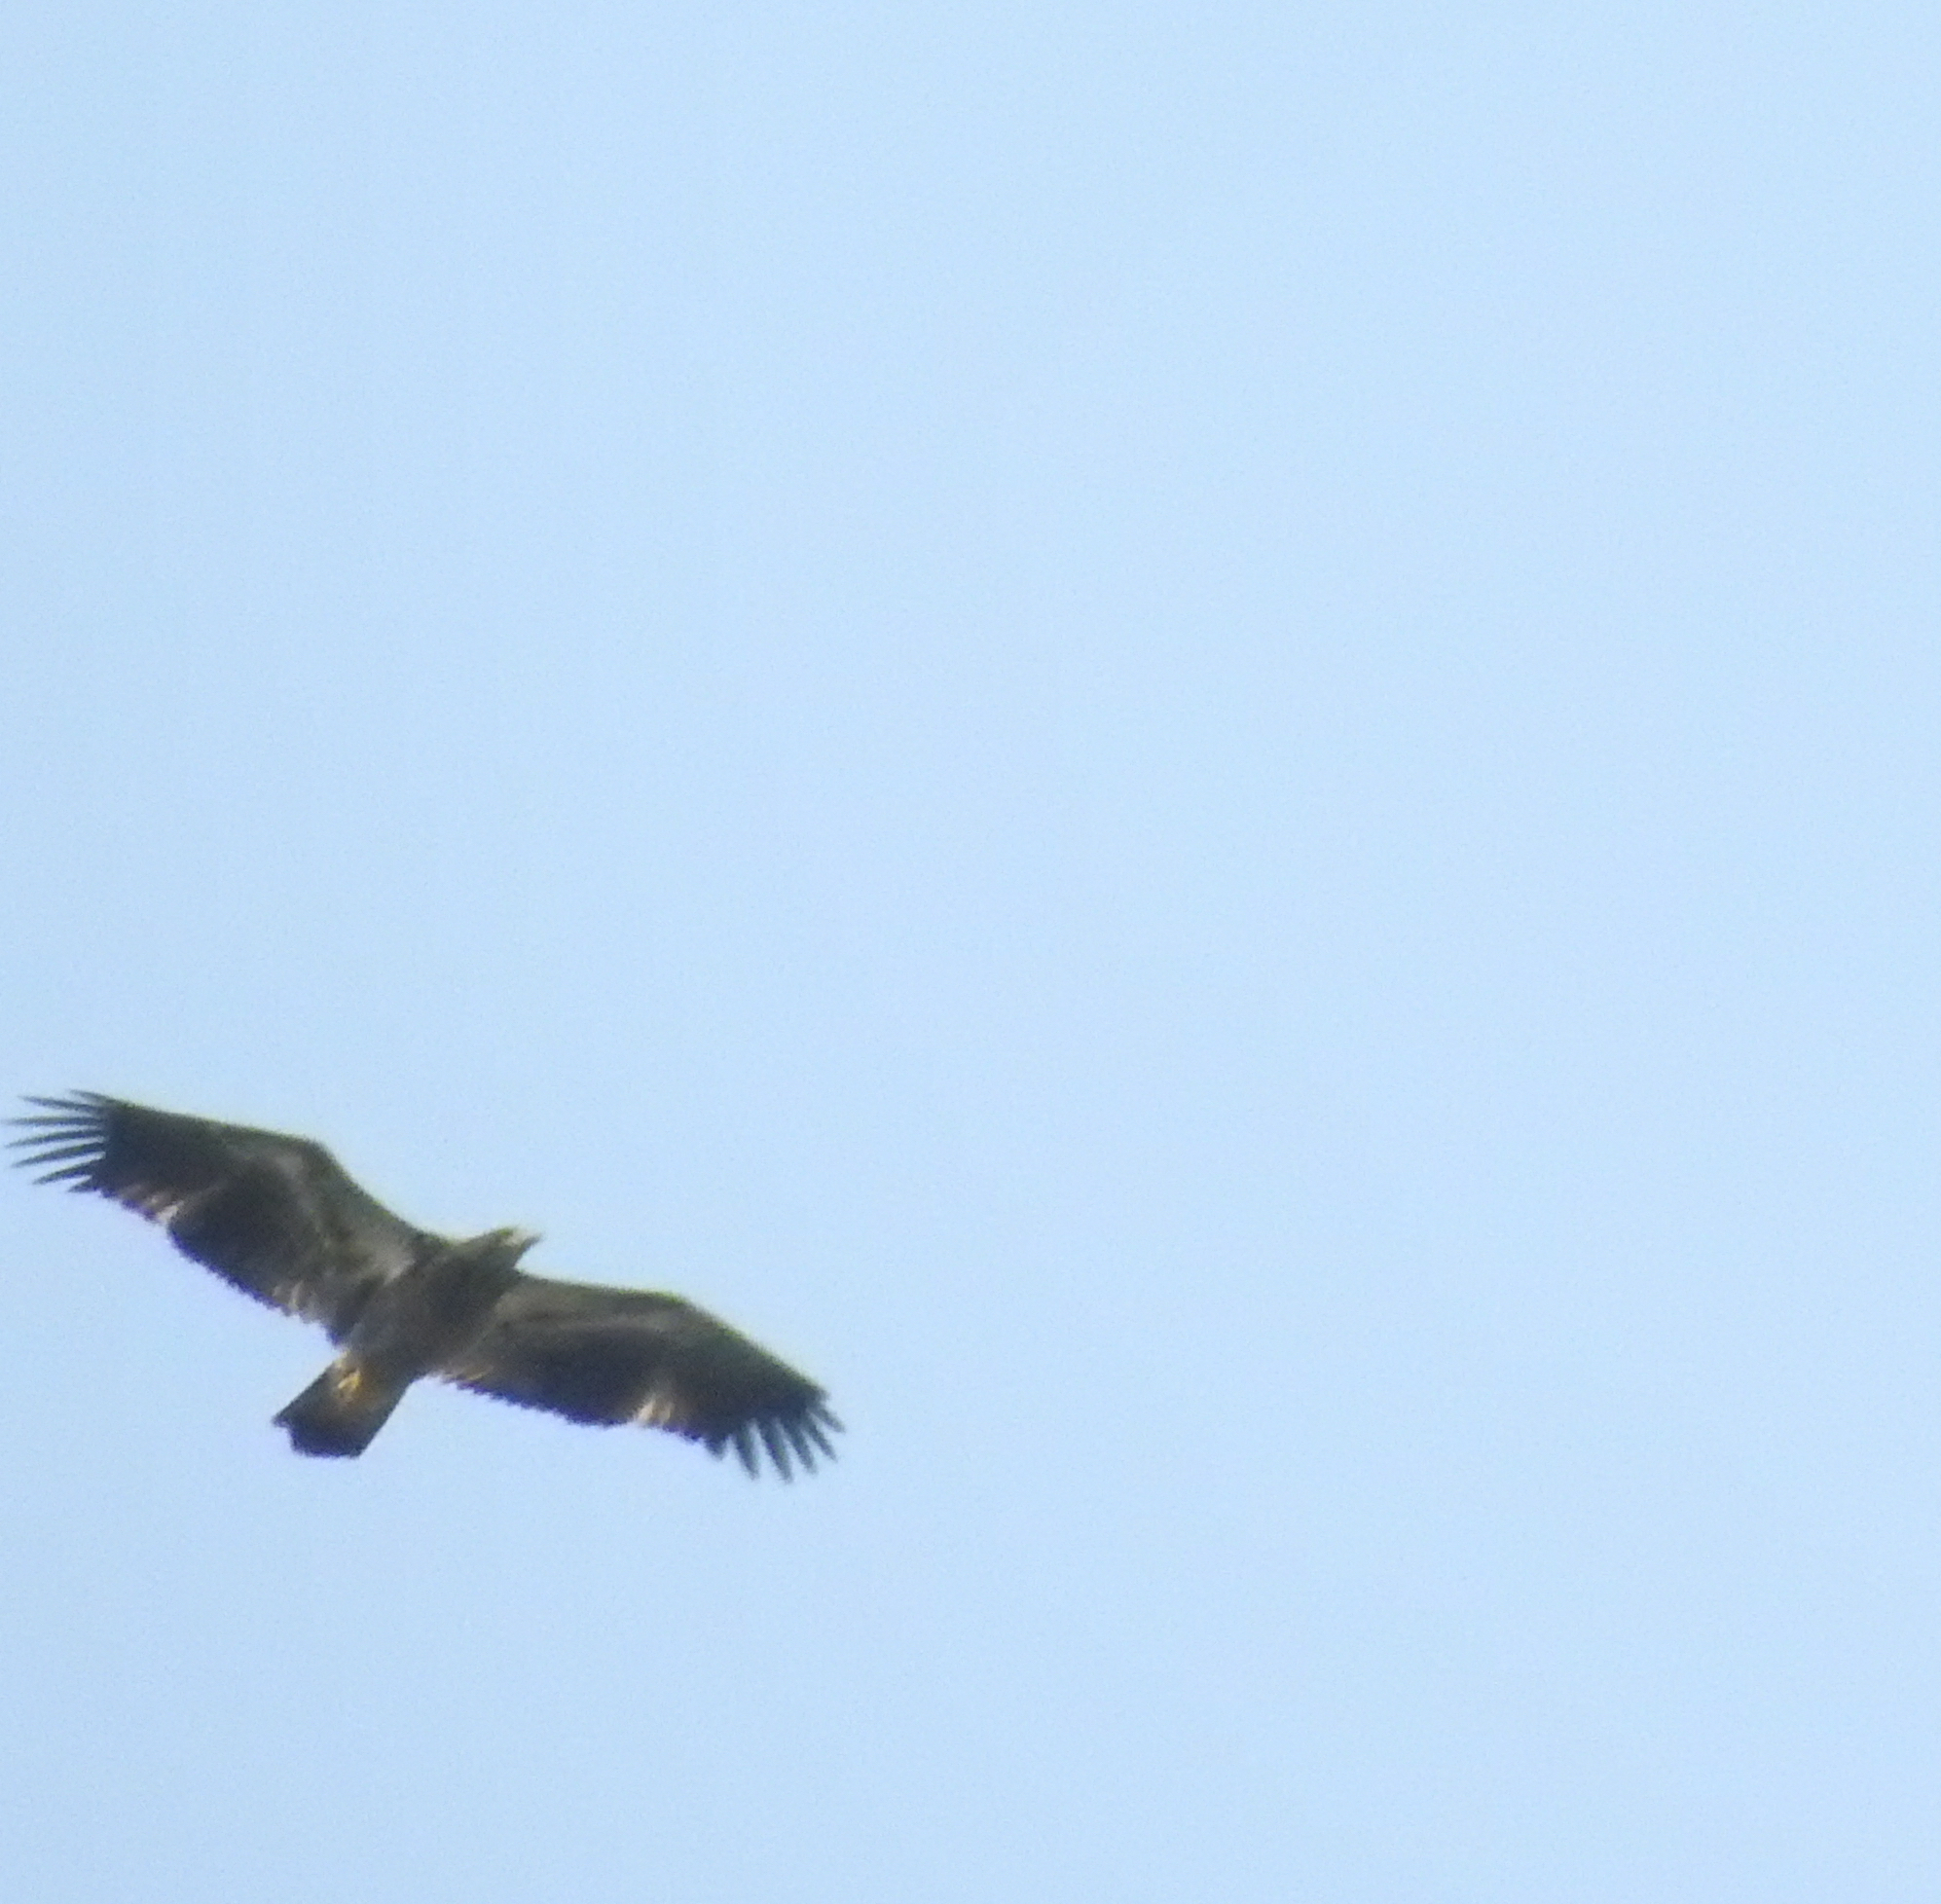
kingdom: Animalia
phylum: Chordata
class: Aves
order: Accipitriformes
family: Accipitridae
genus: Haliaeetus
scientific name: Haliaeetus leucocephalus
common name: Bald eagle
